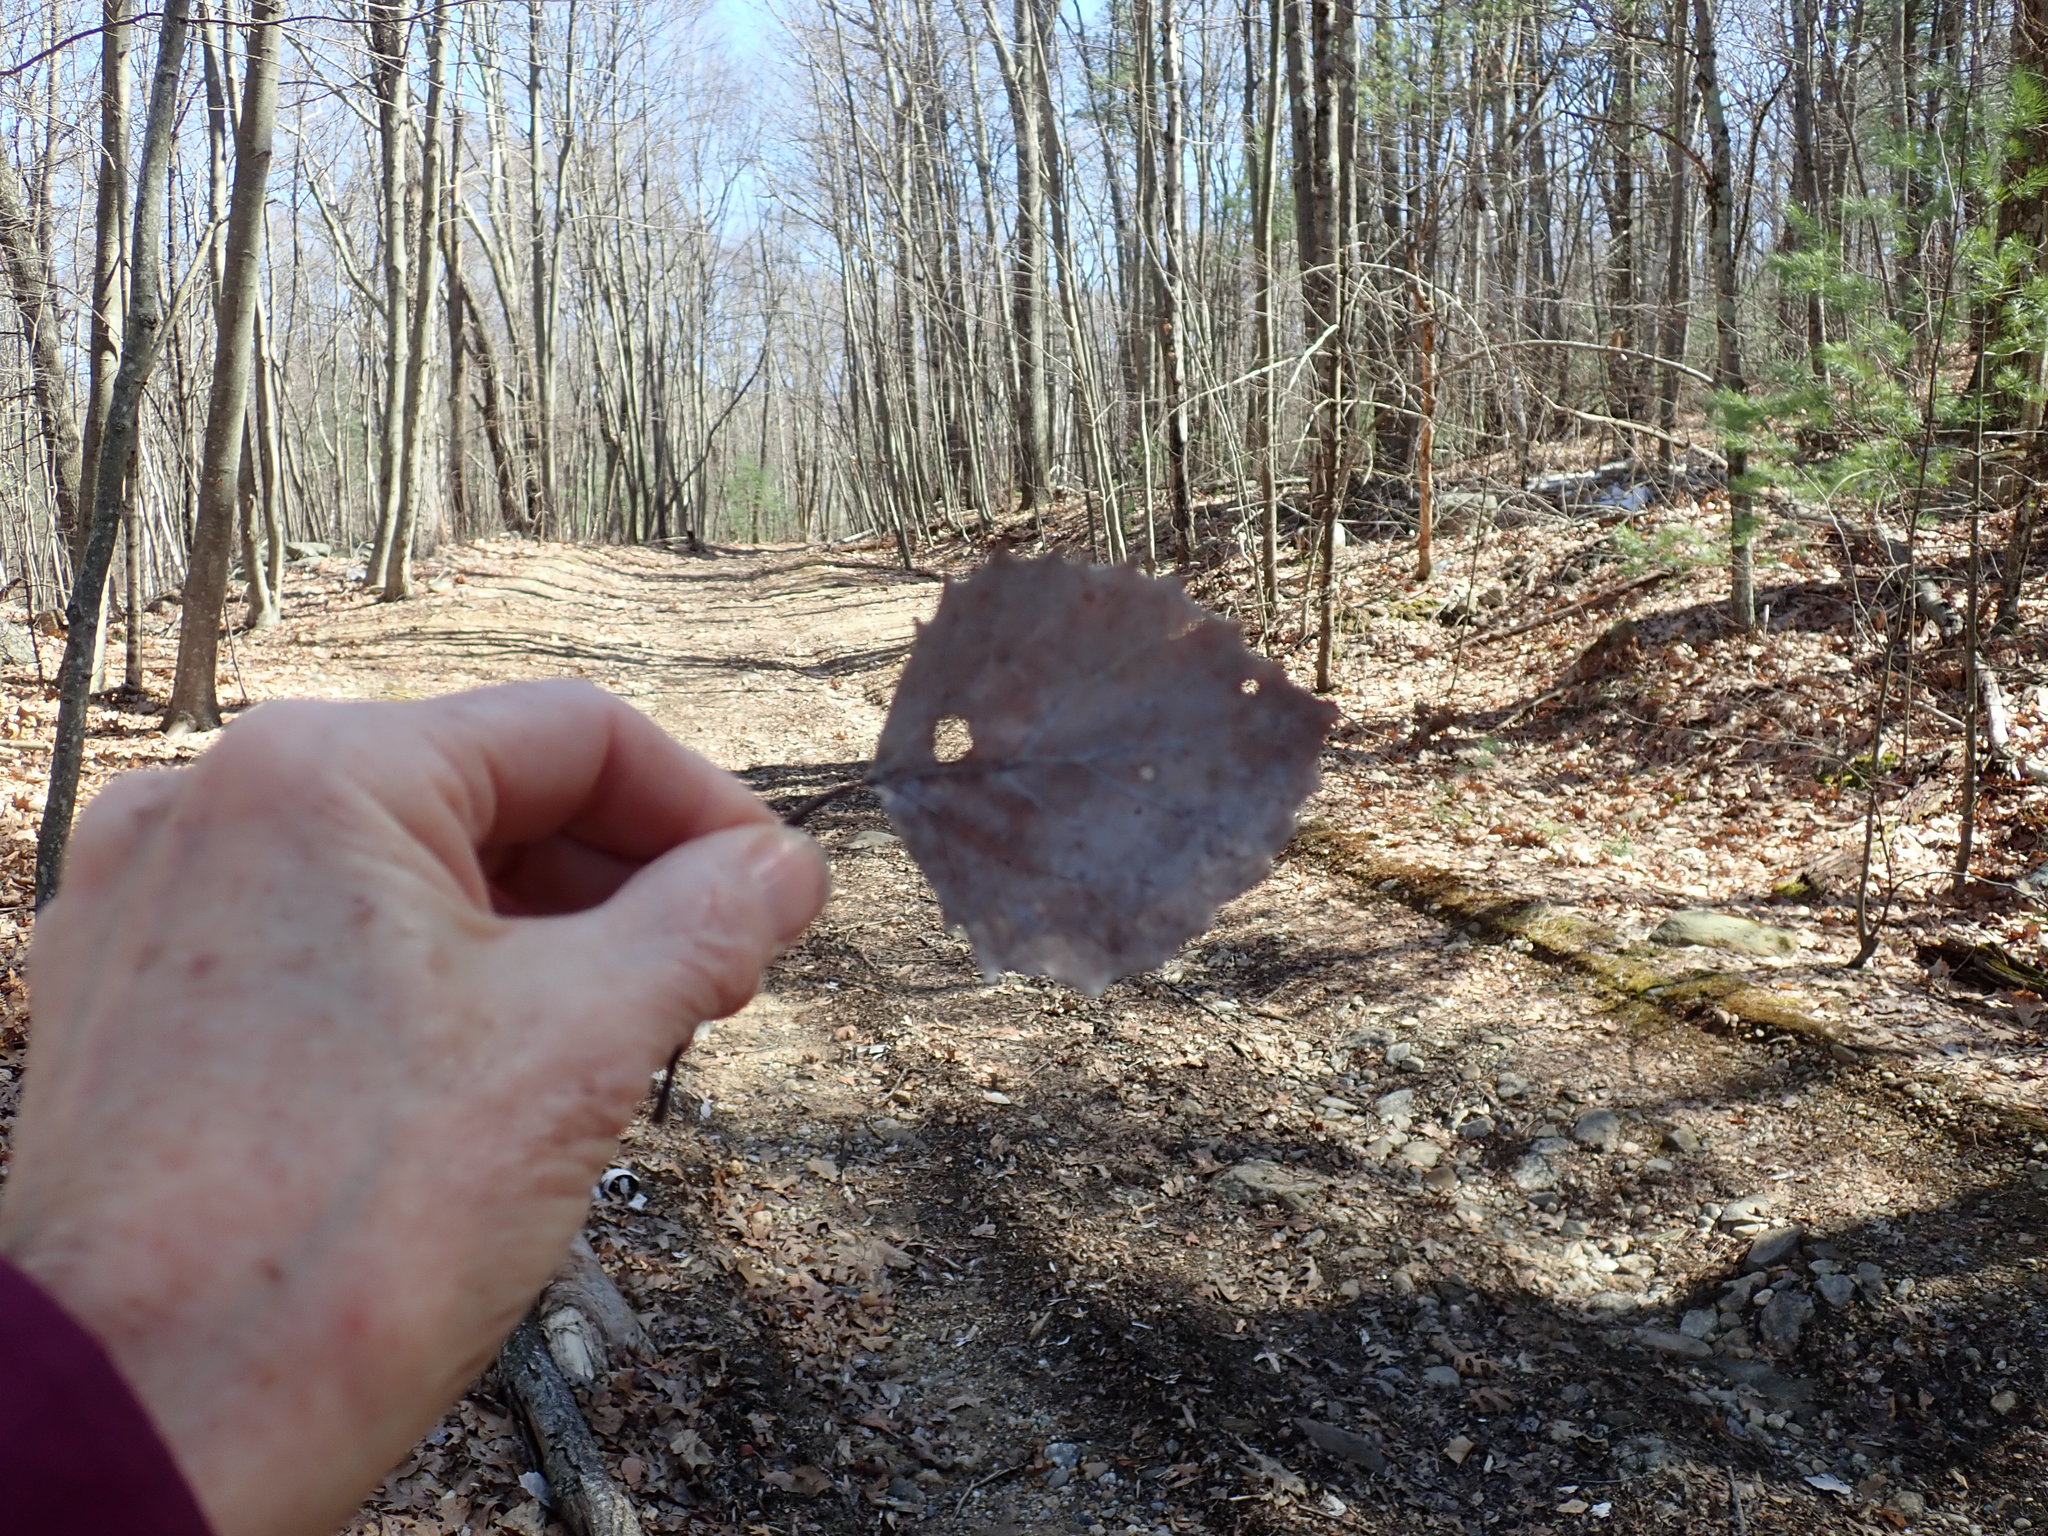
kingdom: Plantae
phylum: Tracheophyta
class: Magnoliopsida
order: Malpighiales
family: Salicaceae
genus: Populus
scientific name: Populus grandidentata
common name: Bigtooth aspen
